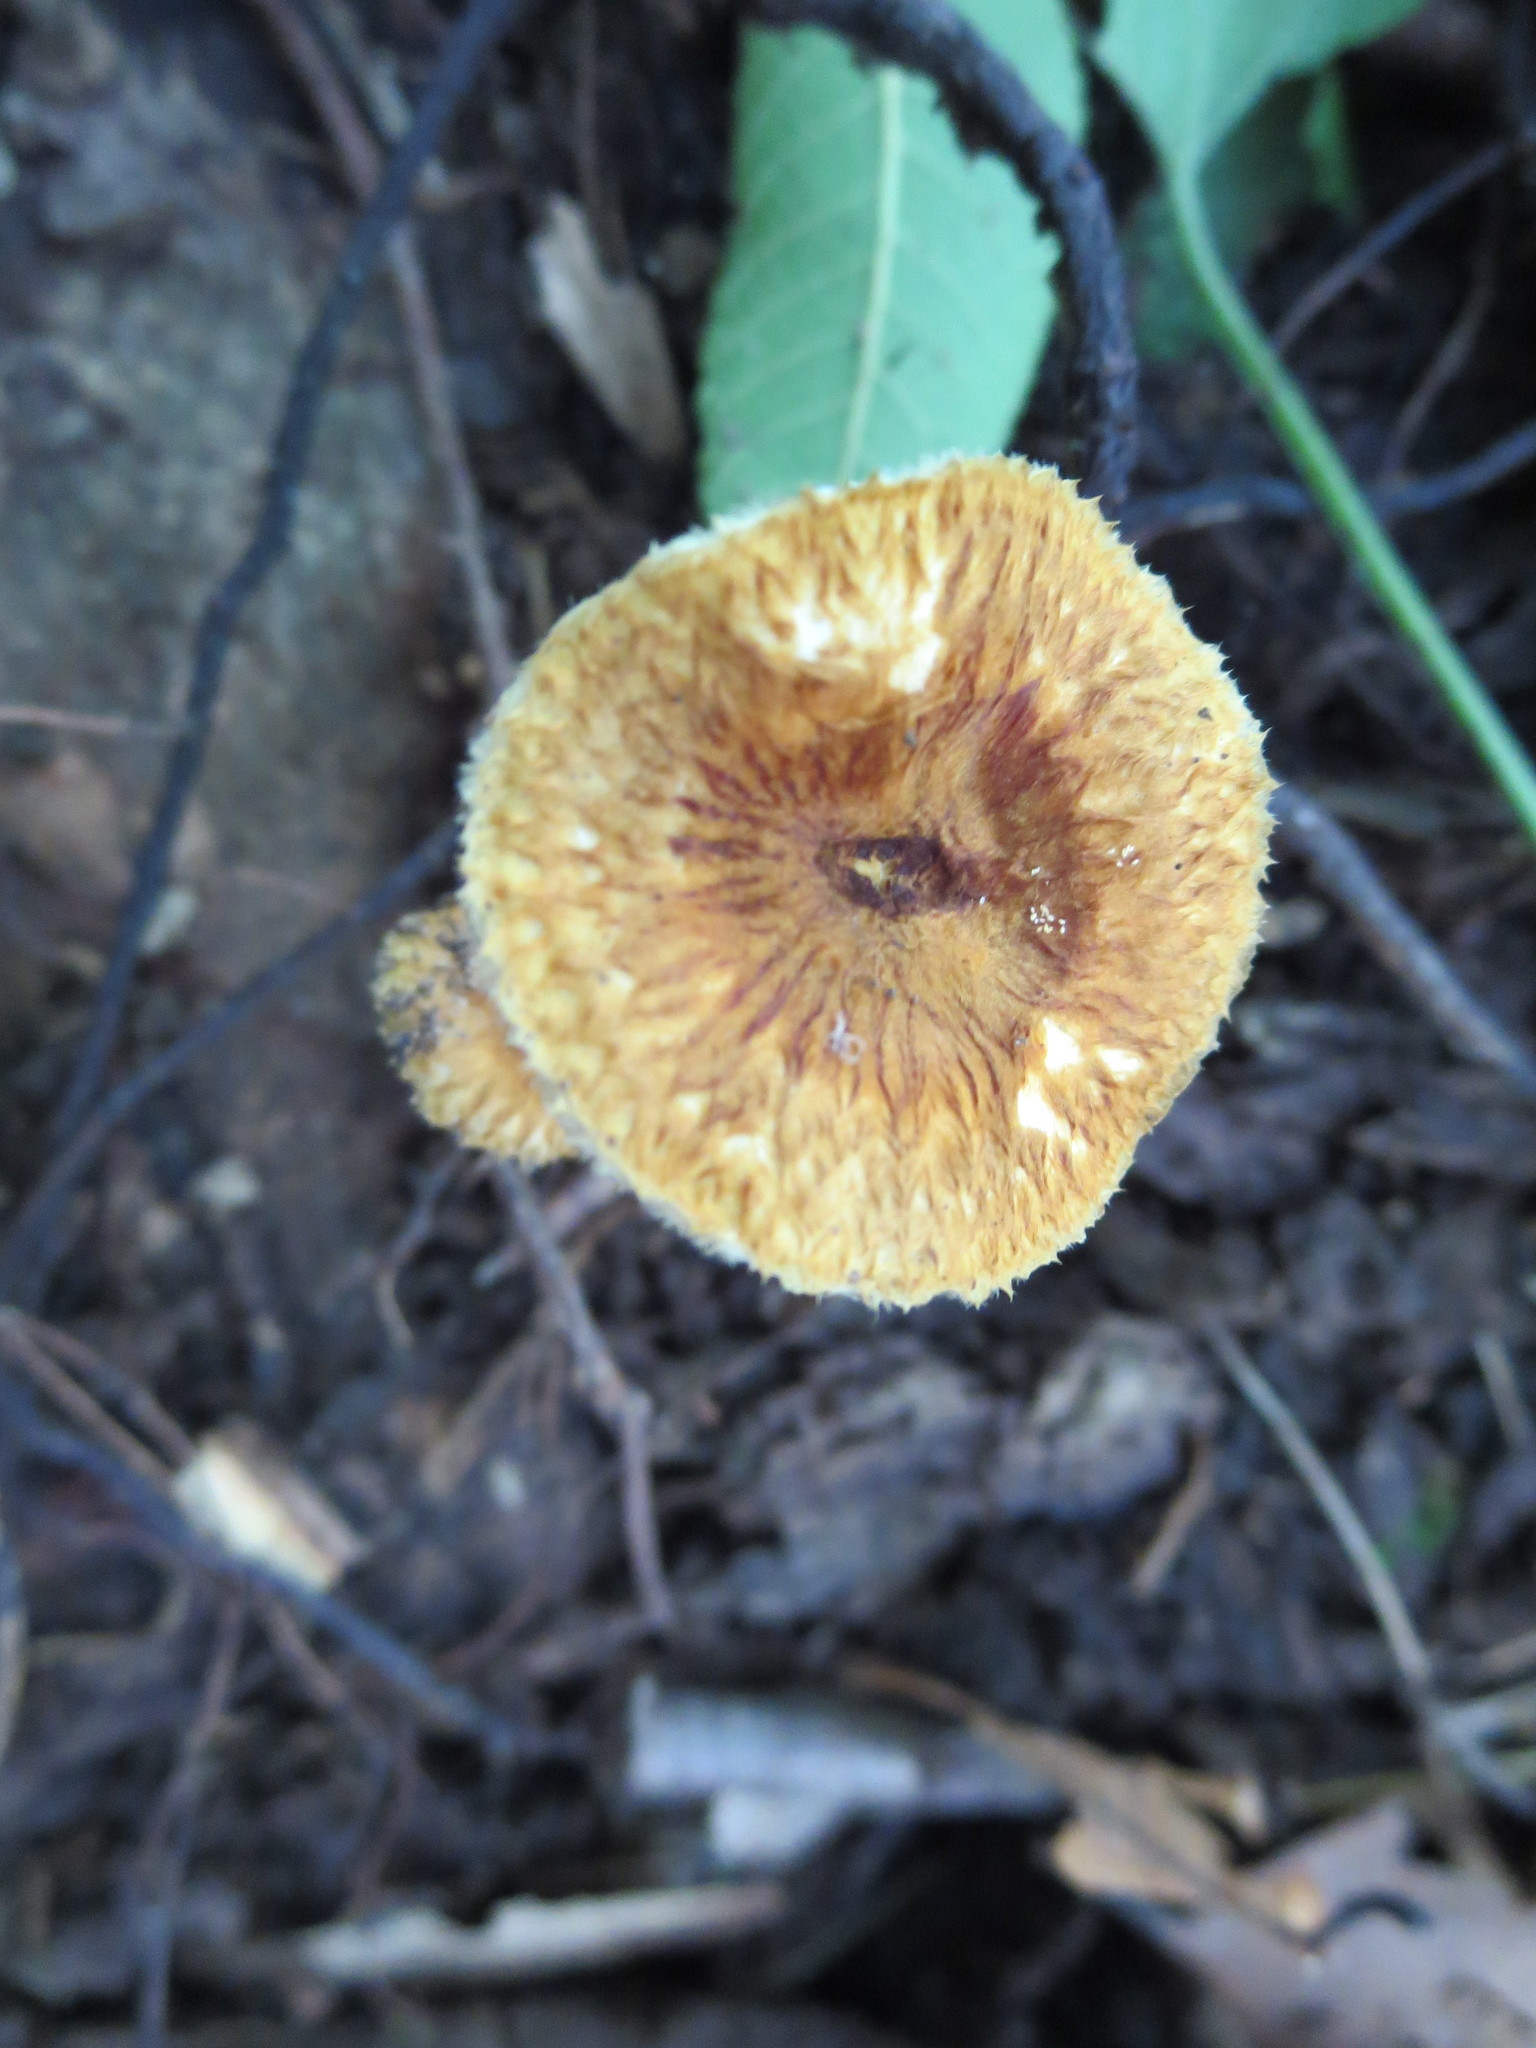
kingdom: Fungi
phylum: Basidiomycota
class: Agaricomycetes
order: Agaricales
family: Tricholomataceae
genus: Collybia
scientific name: Collybia zonata
